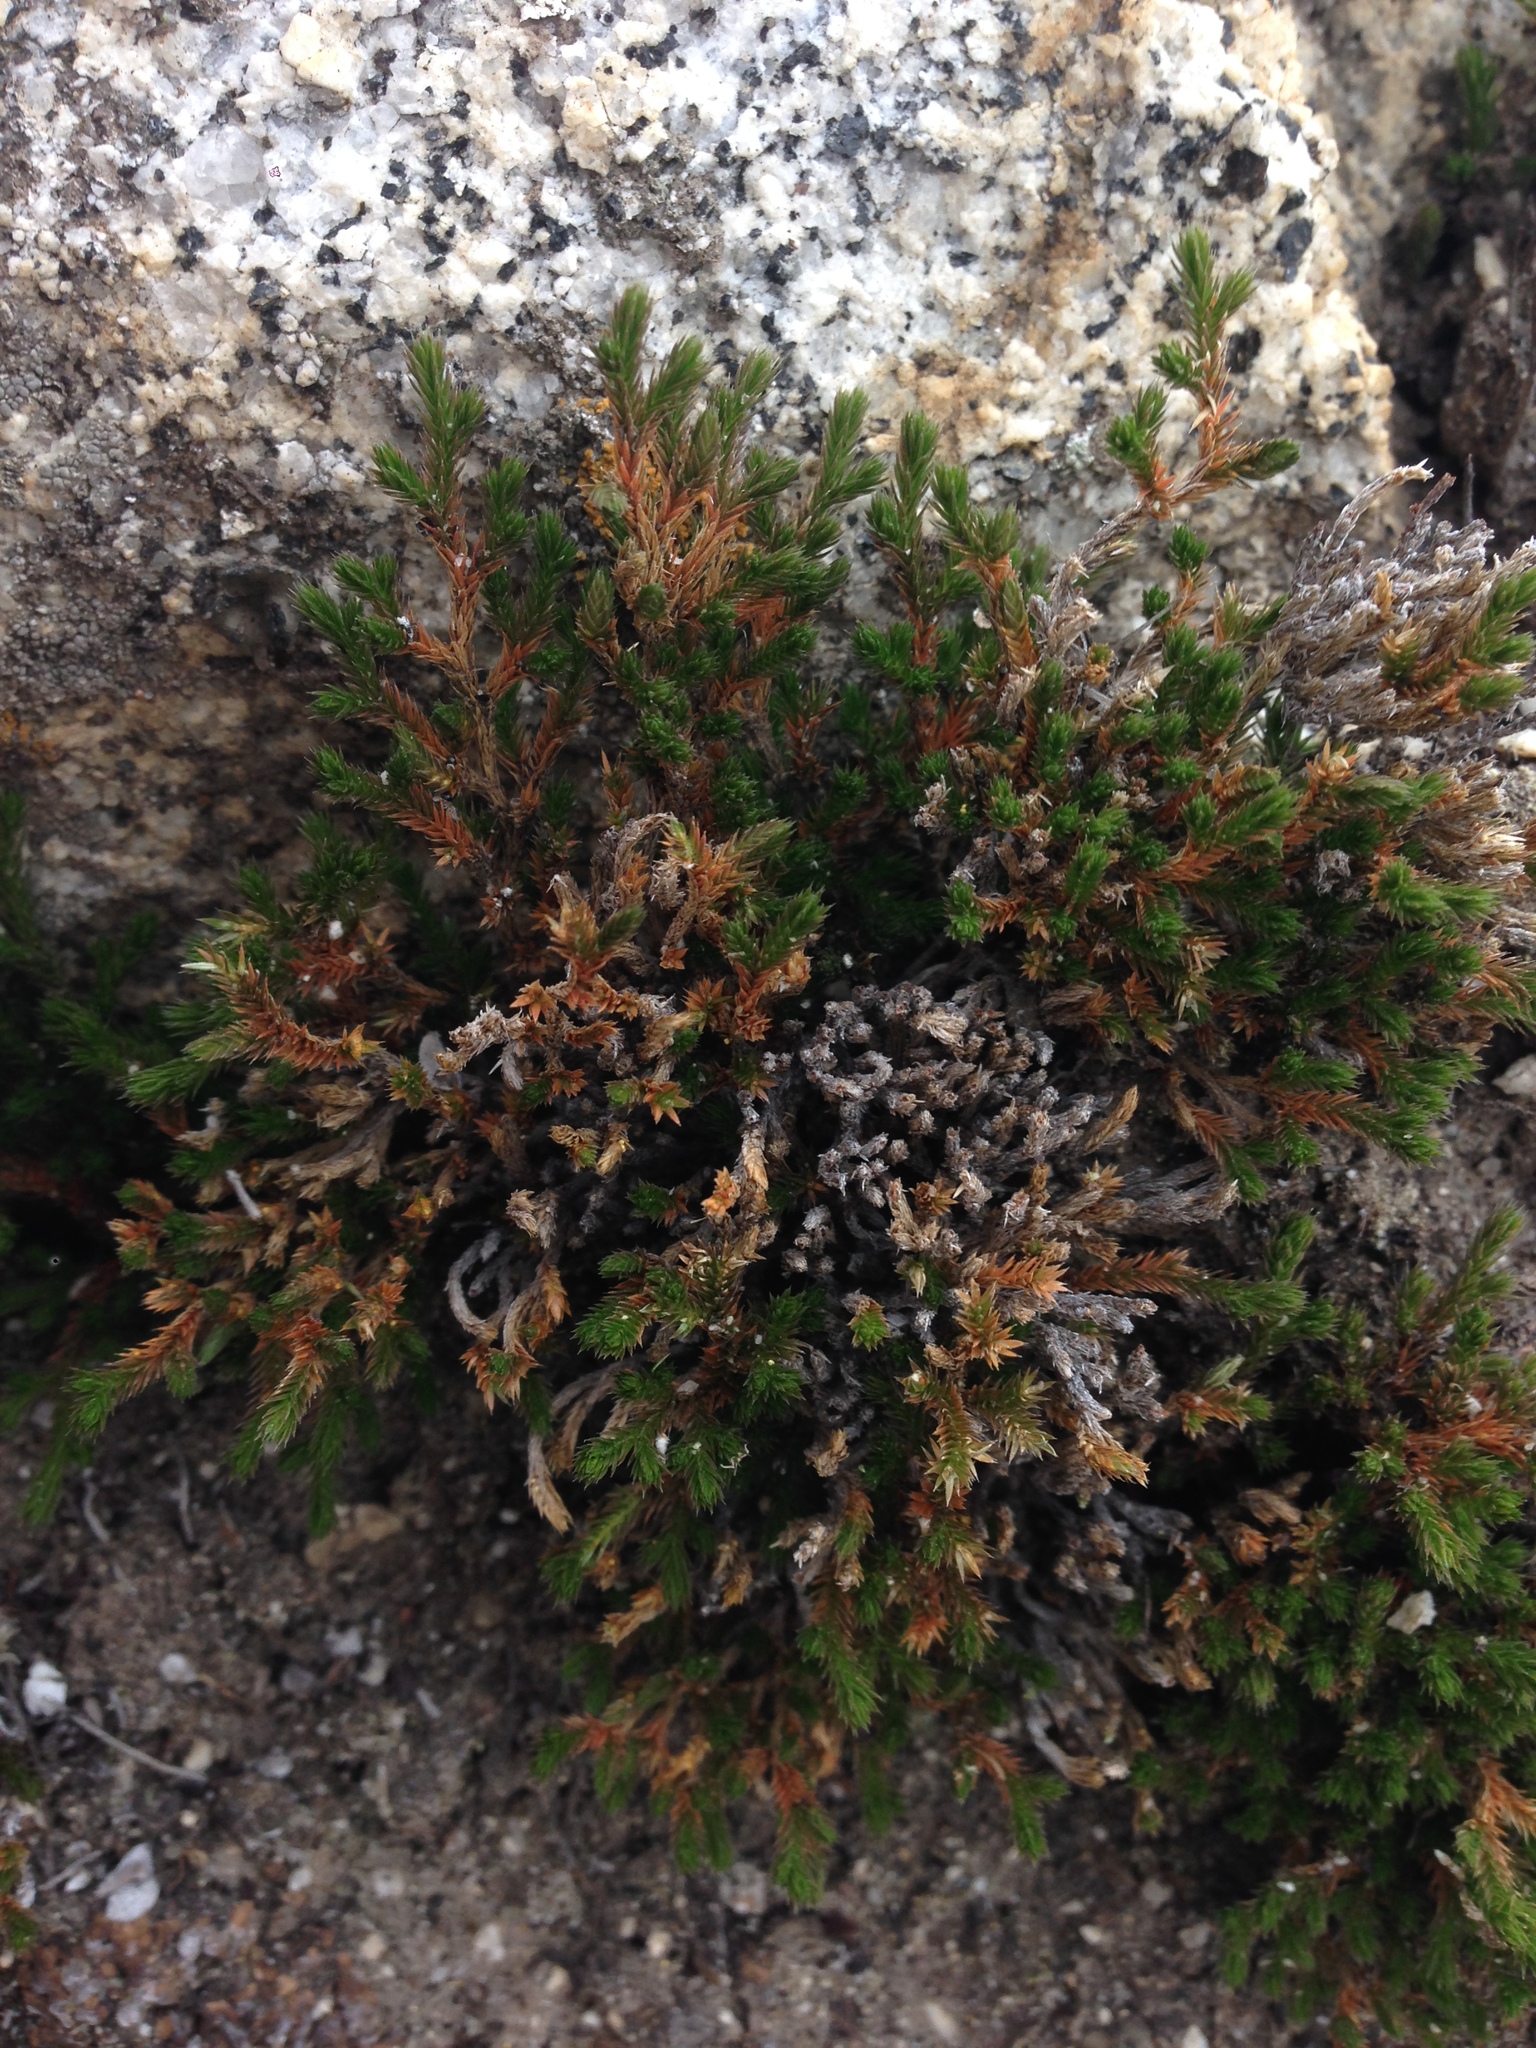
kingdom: Plantae
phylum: Tracheophyta
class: Lycopodiopsida
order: Selaginellales
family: Selaginellaceae
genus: Selaginella
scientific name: Selaginella bigelovii
